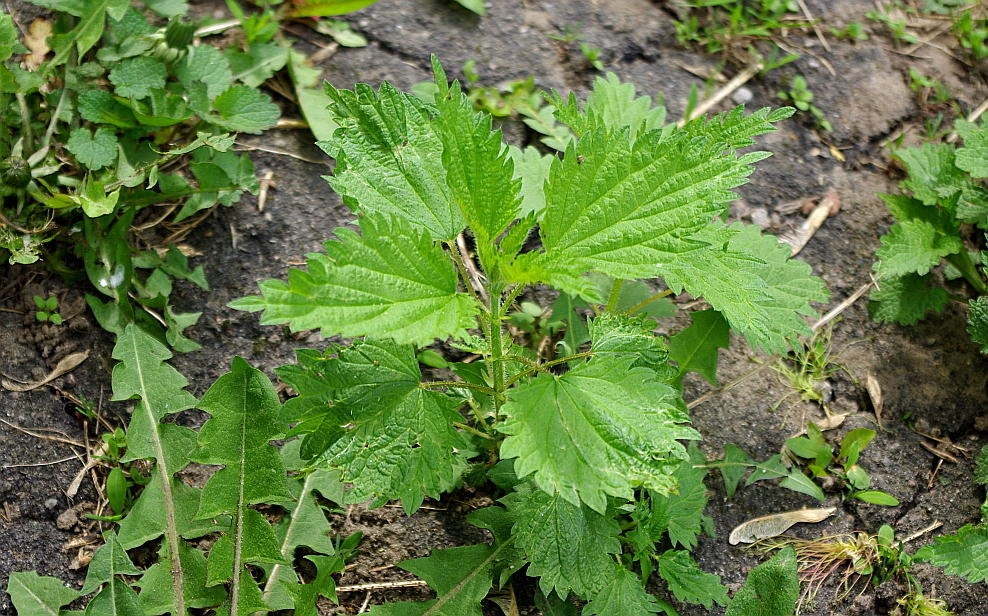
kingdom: Plantae
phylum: Tracheophyta
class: Magnoliopsida
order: Rosales
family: Urticaceae
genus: Urtica
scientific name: Urtica dioica
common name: Common nettle
